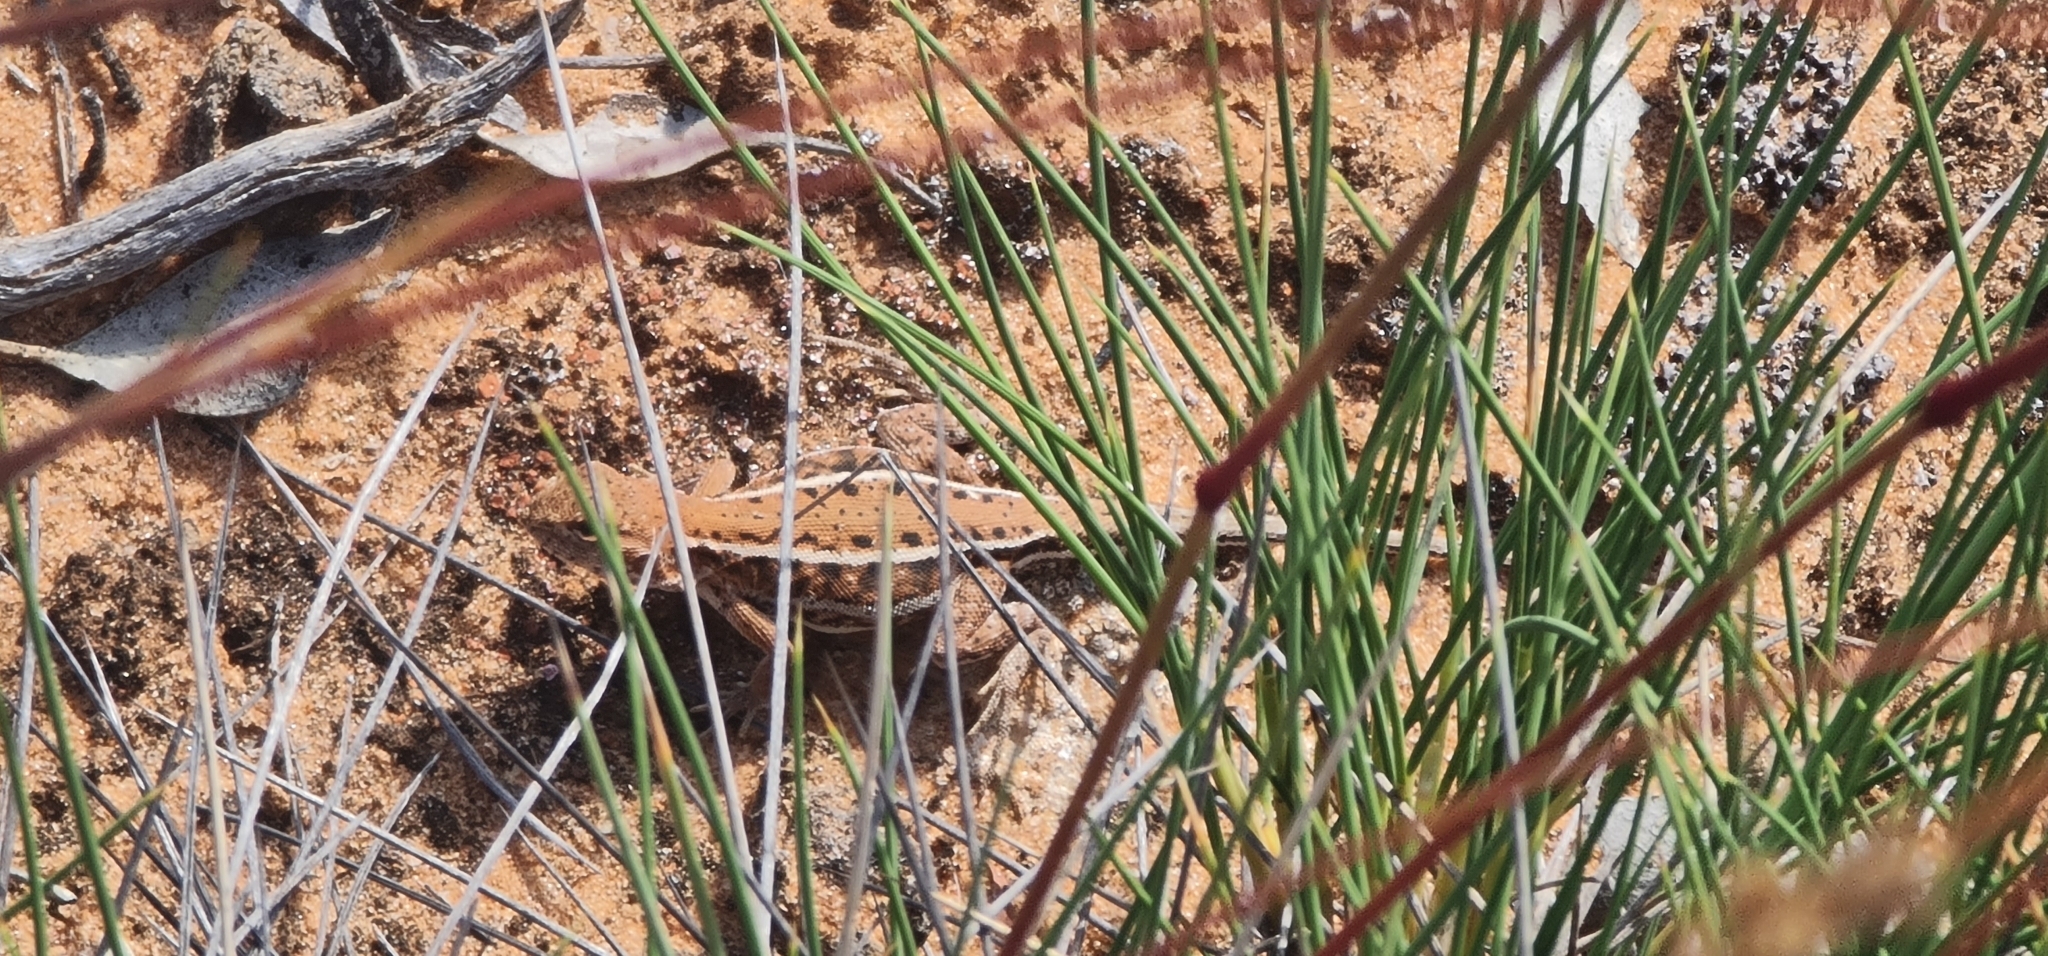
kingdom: Animalia
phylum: Chordata
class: Squamata
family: Agamidae
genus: Ctenophorus
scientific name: Ctenophorus spinodomus
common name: Eastern mallee dragon
